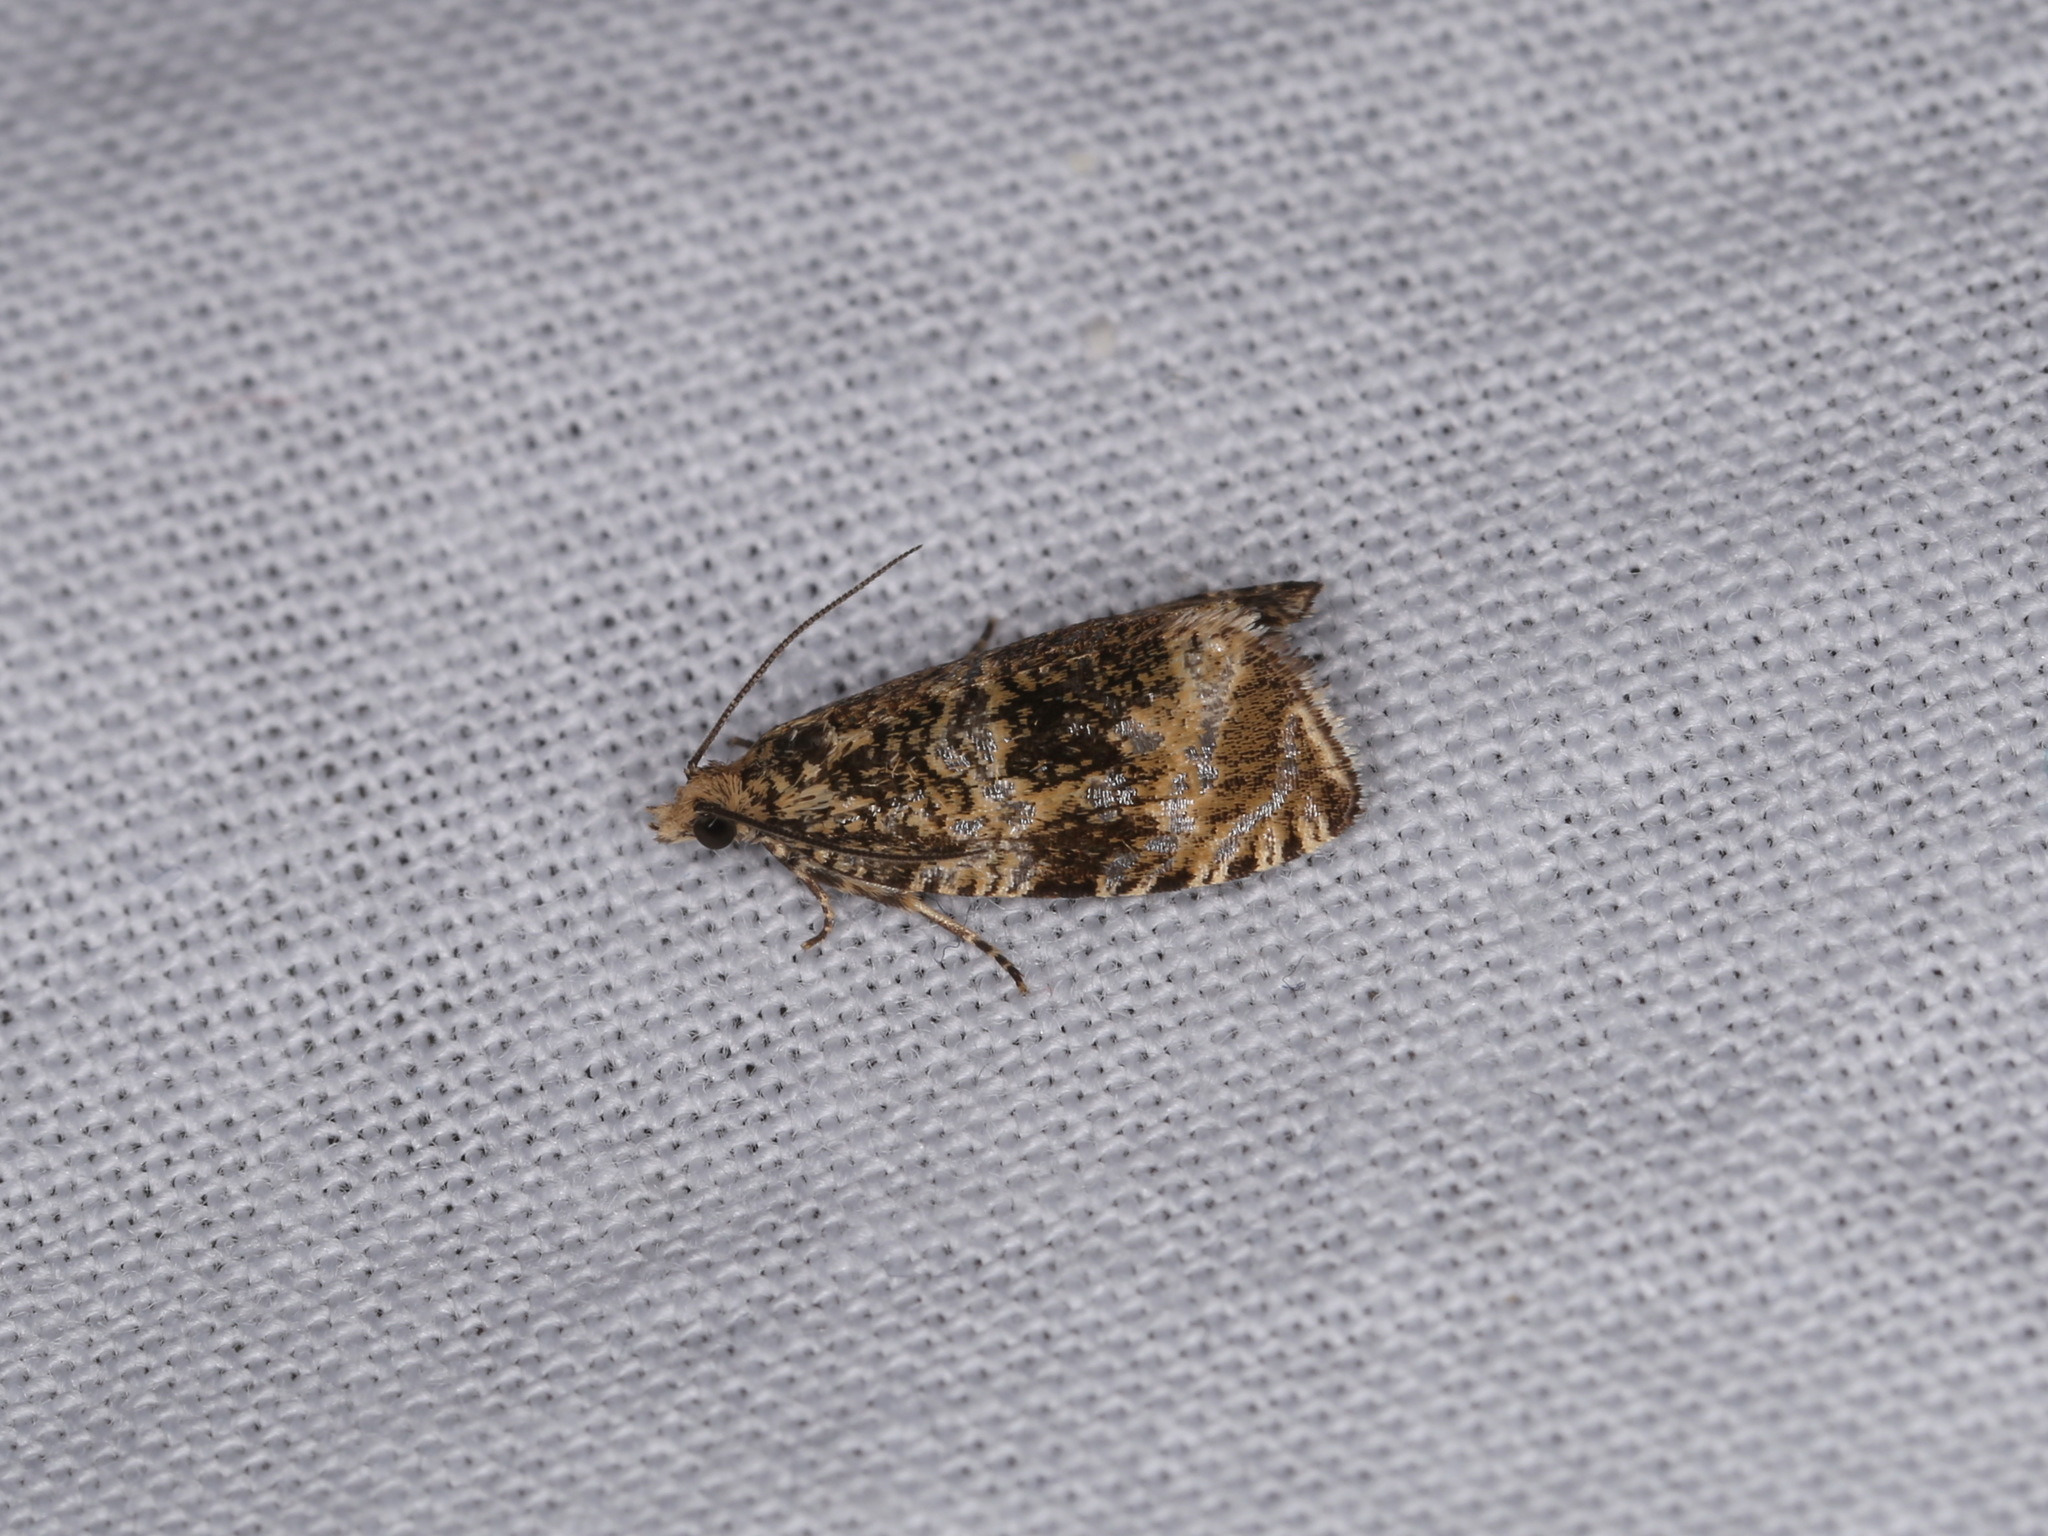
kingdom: Animalia
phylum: Arthropoda
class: Insecta
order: Lepidoptera
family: Tortricidae
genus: Syricoris
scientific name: Syricoris lacunana
